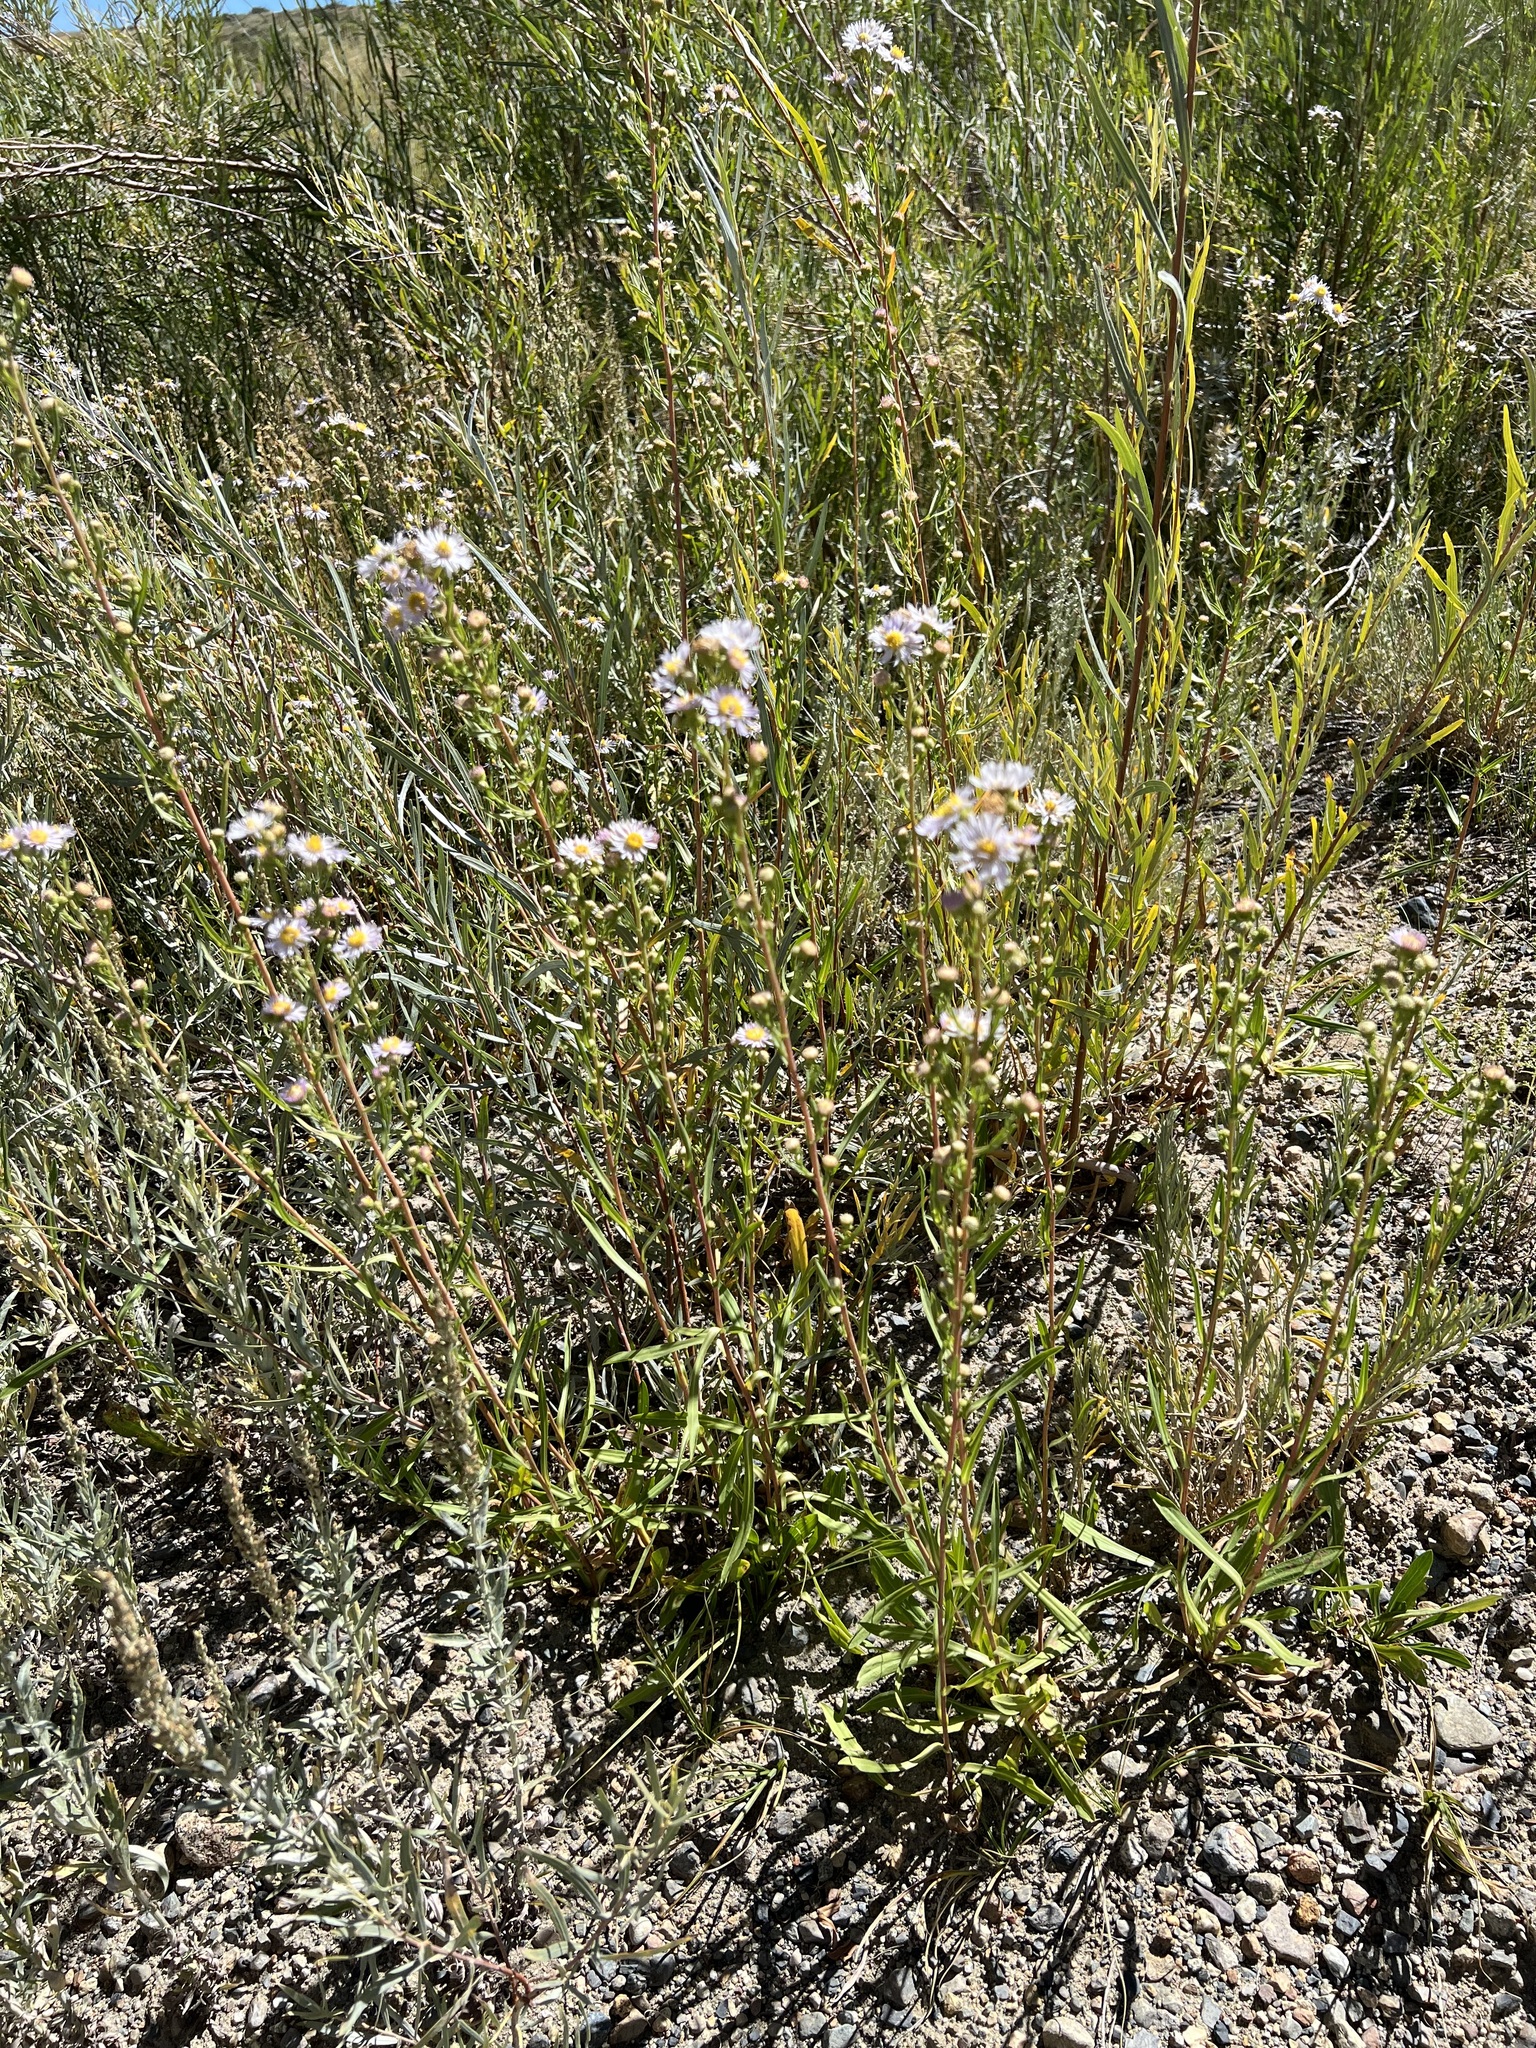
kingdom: Plantae
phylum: Tracheophyta
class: Magnoliopsida
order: Asterales
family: Asteraceae
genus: Symphyotrichum
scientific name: Symphyotrichum spathulatum
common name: Western mountain aster
